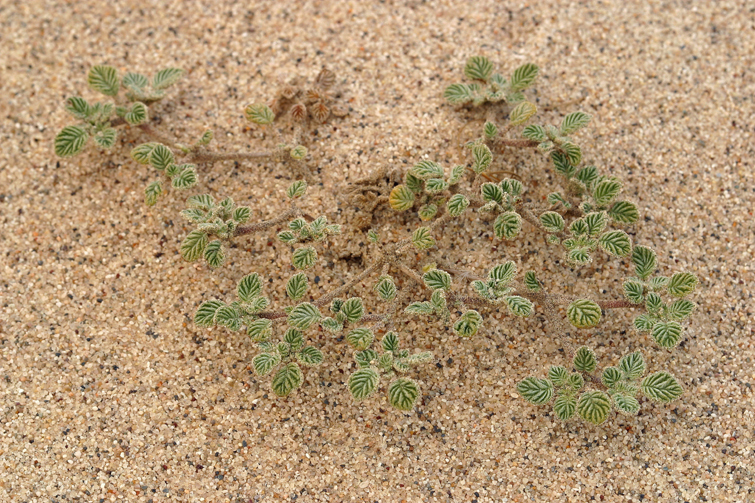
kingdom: Plantae
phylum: Tracheophyta
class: Magnoliopsida
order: Boraginales
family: Ehretiaceae
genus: Tiquilia
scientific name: Tiquilia plicata
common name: Fan-leaf tiquilia
